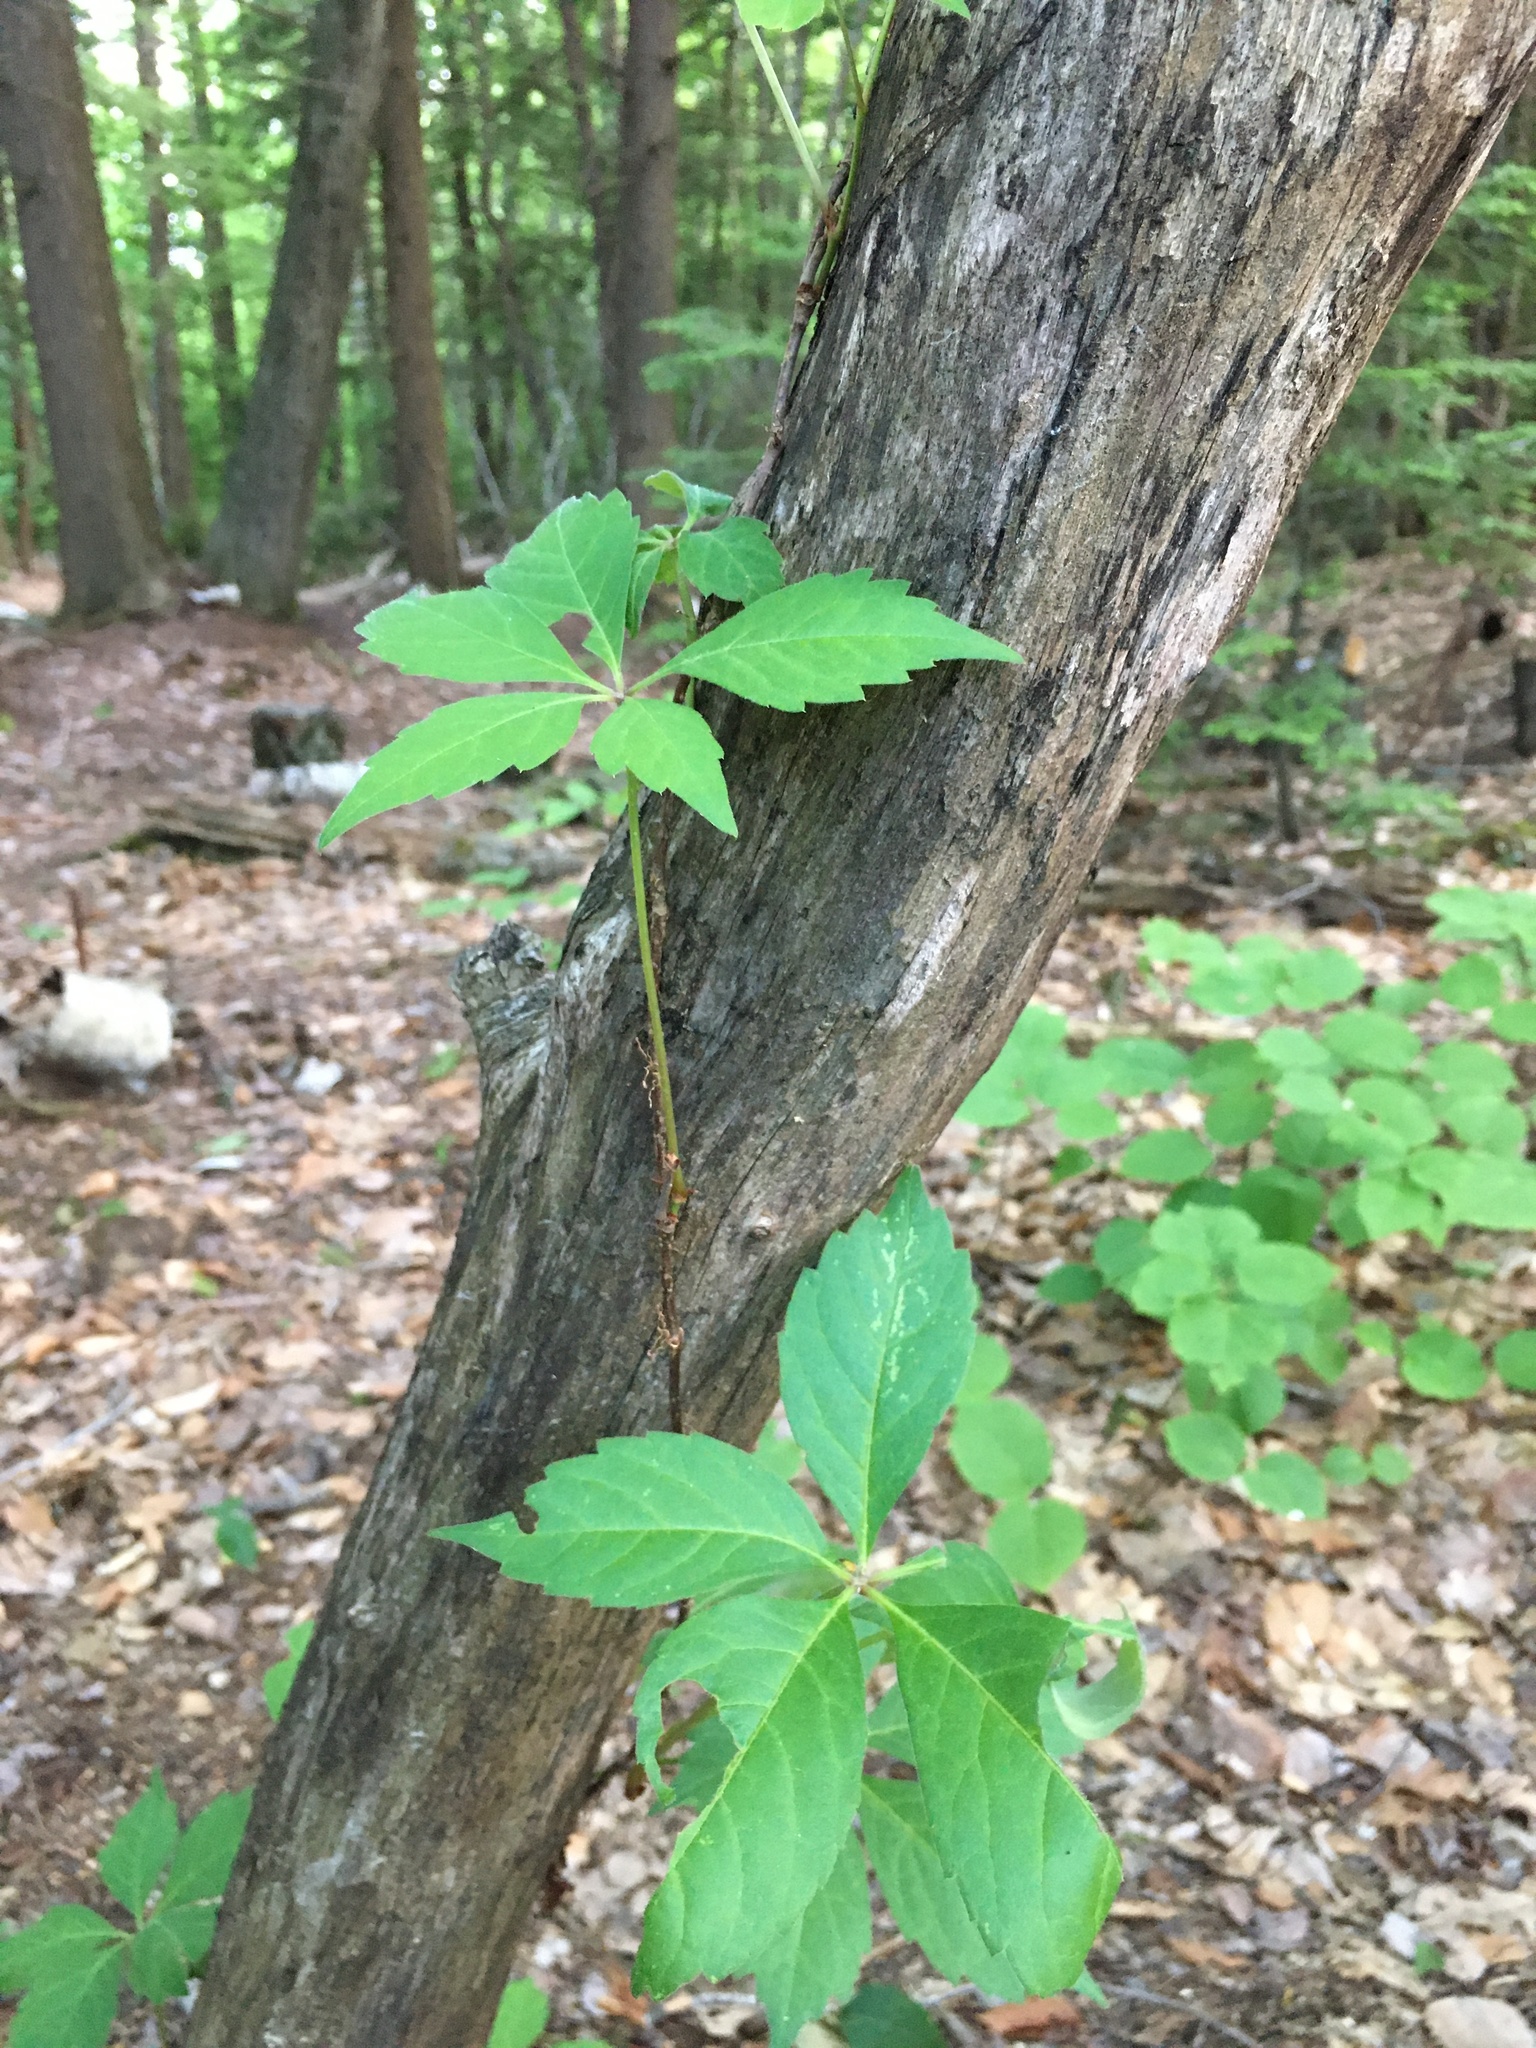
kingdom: Plantae
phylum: Tracheophyta
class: Magnoliopsida
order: Vitales
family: Vitaceae
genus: Parthenocissus
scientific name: Parthenocissus quinquefolia
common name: Virginia-creeper
